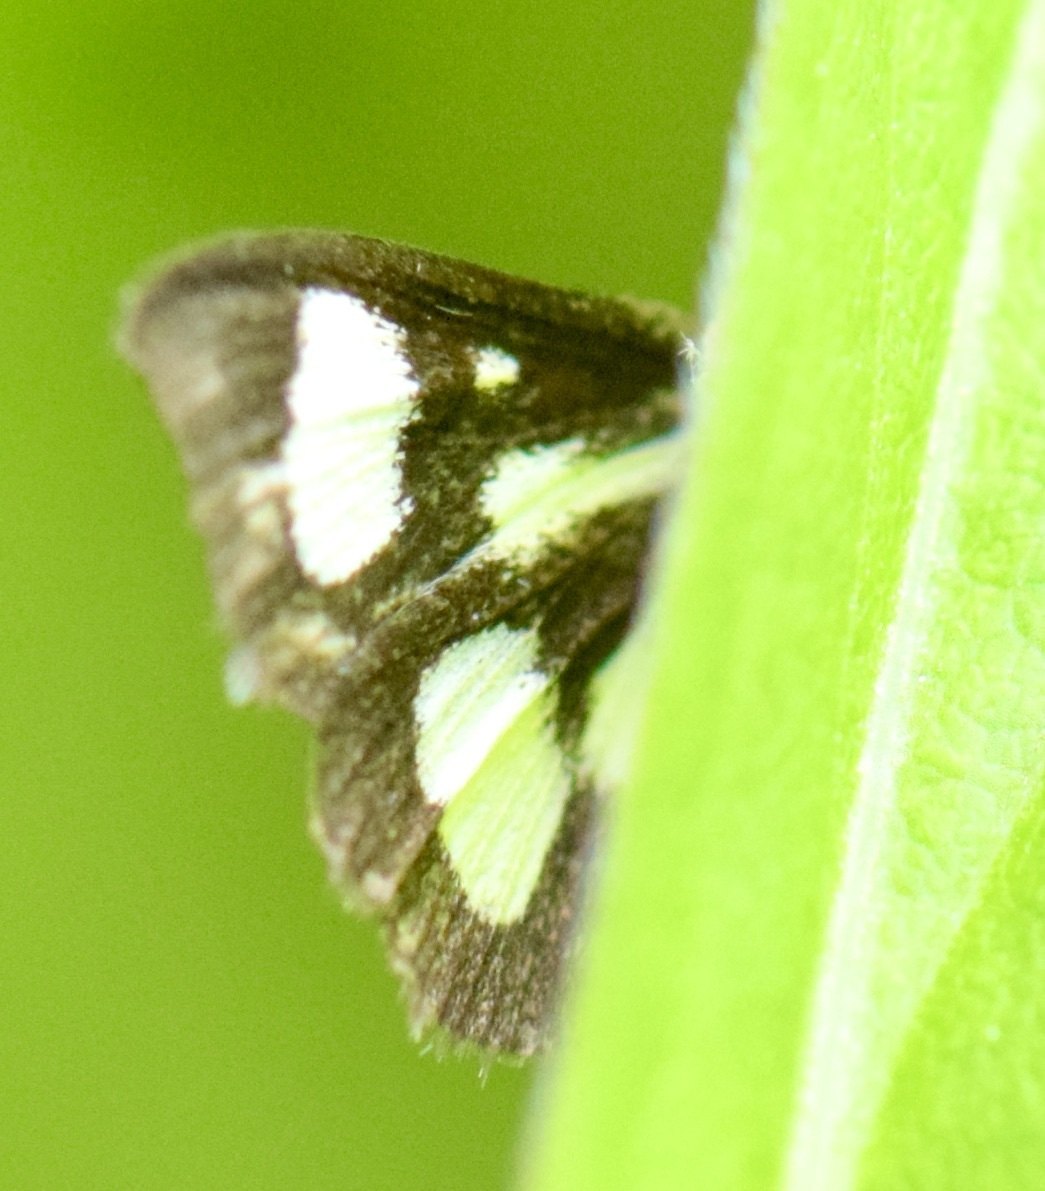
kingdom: Animalia
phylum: Arthropoda
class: Insecta
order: Lepidoptera
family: Crambidae
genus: Anania
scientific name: Anania funebris
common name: White-spotted sable moth
